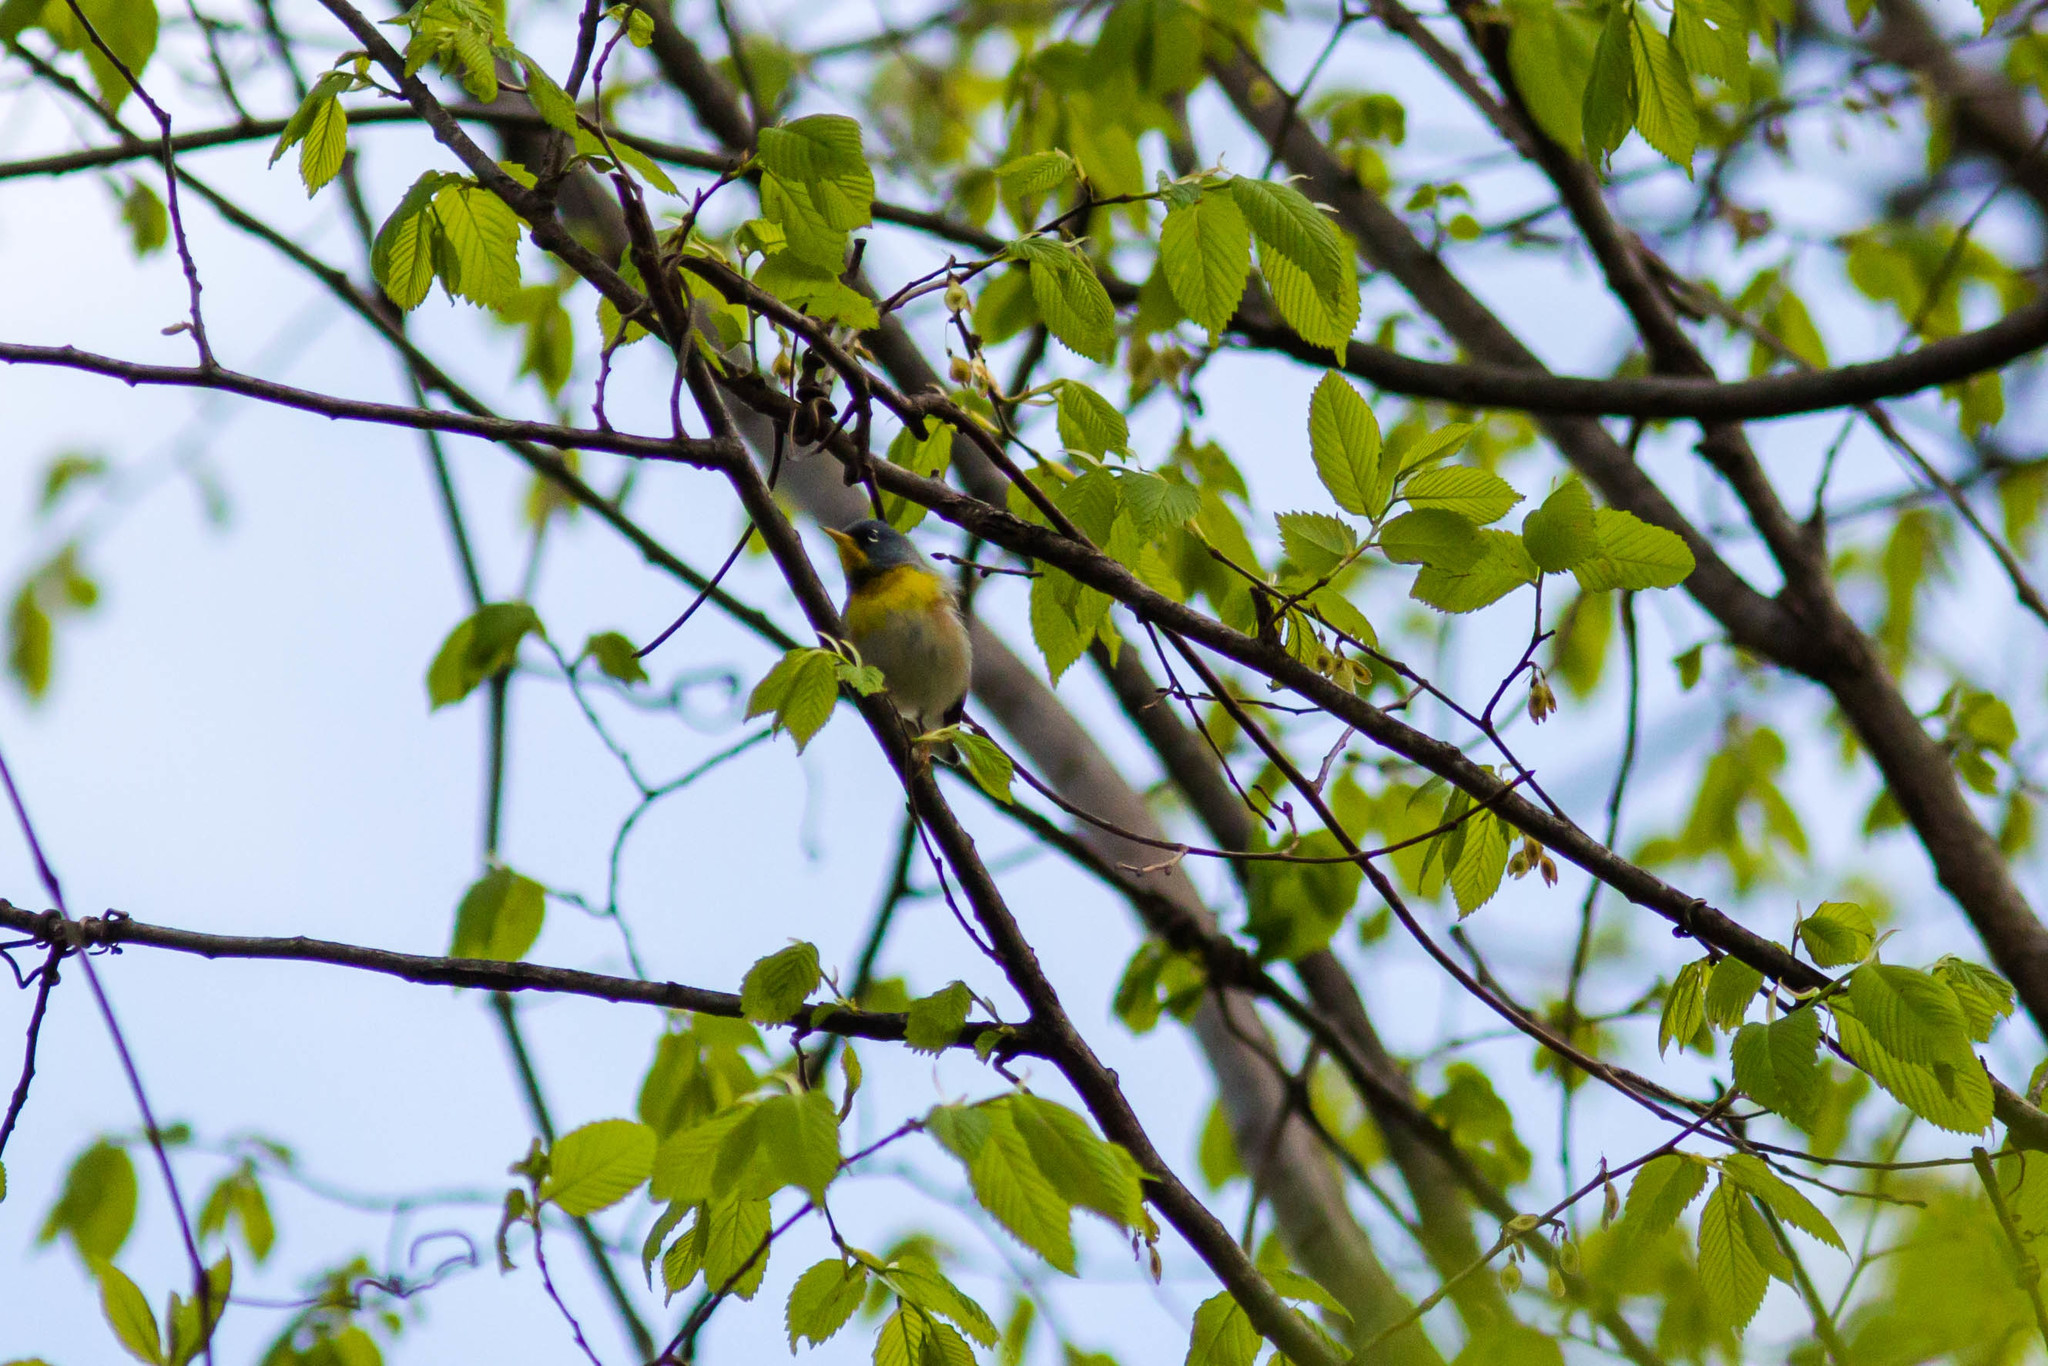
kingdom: Animalia
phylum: Chordata
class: Aves
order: Passeriformes
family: Parulidae
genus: Setophaga
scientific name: Setophaga americana
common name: Northern parula
